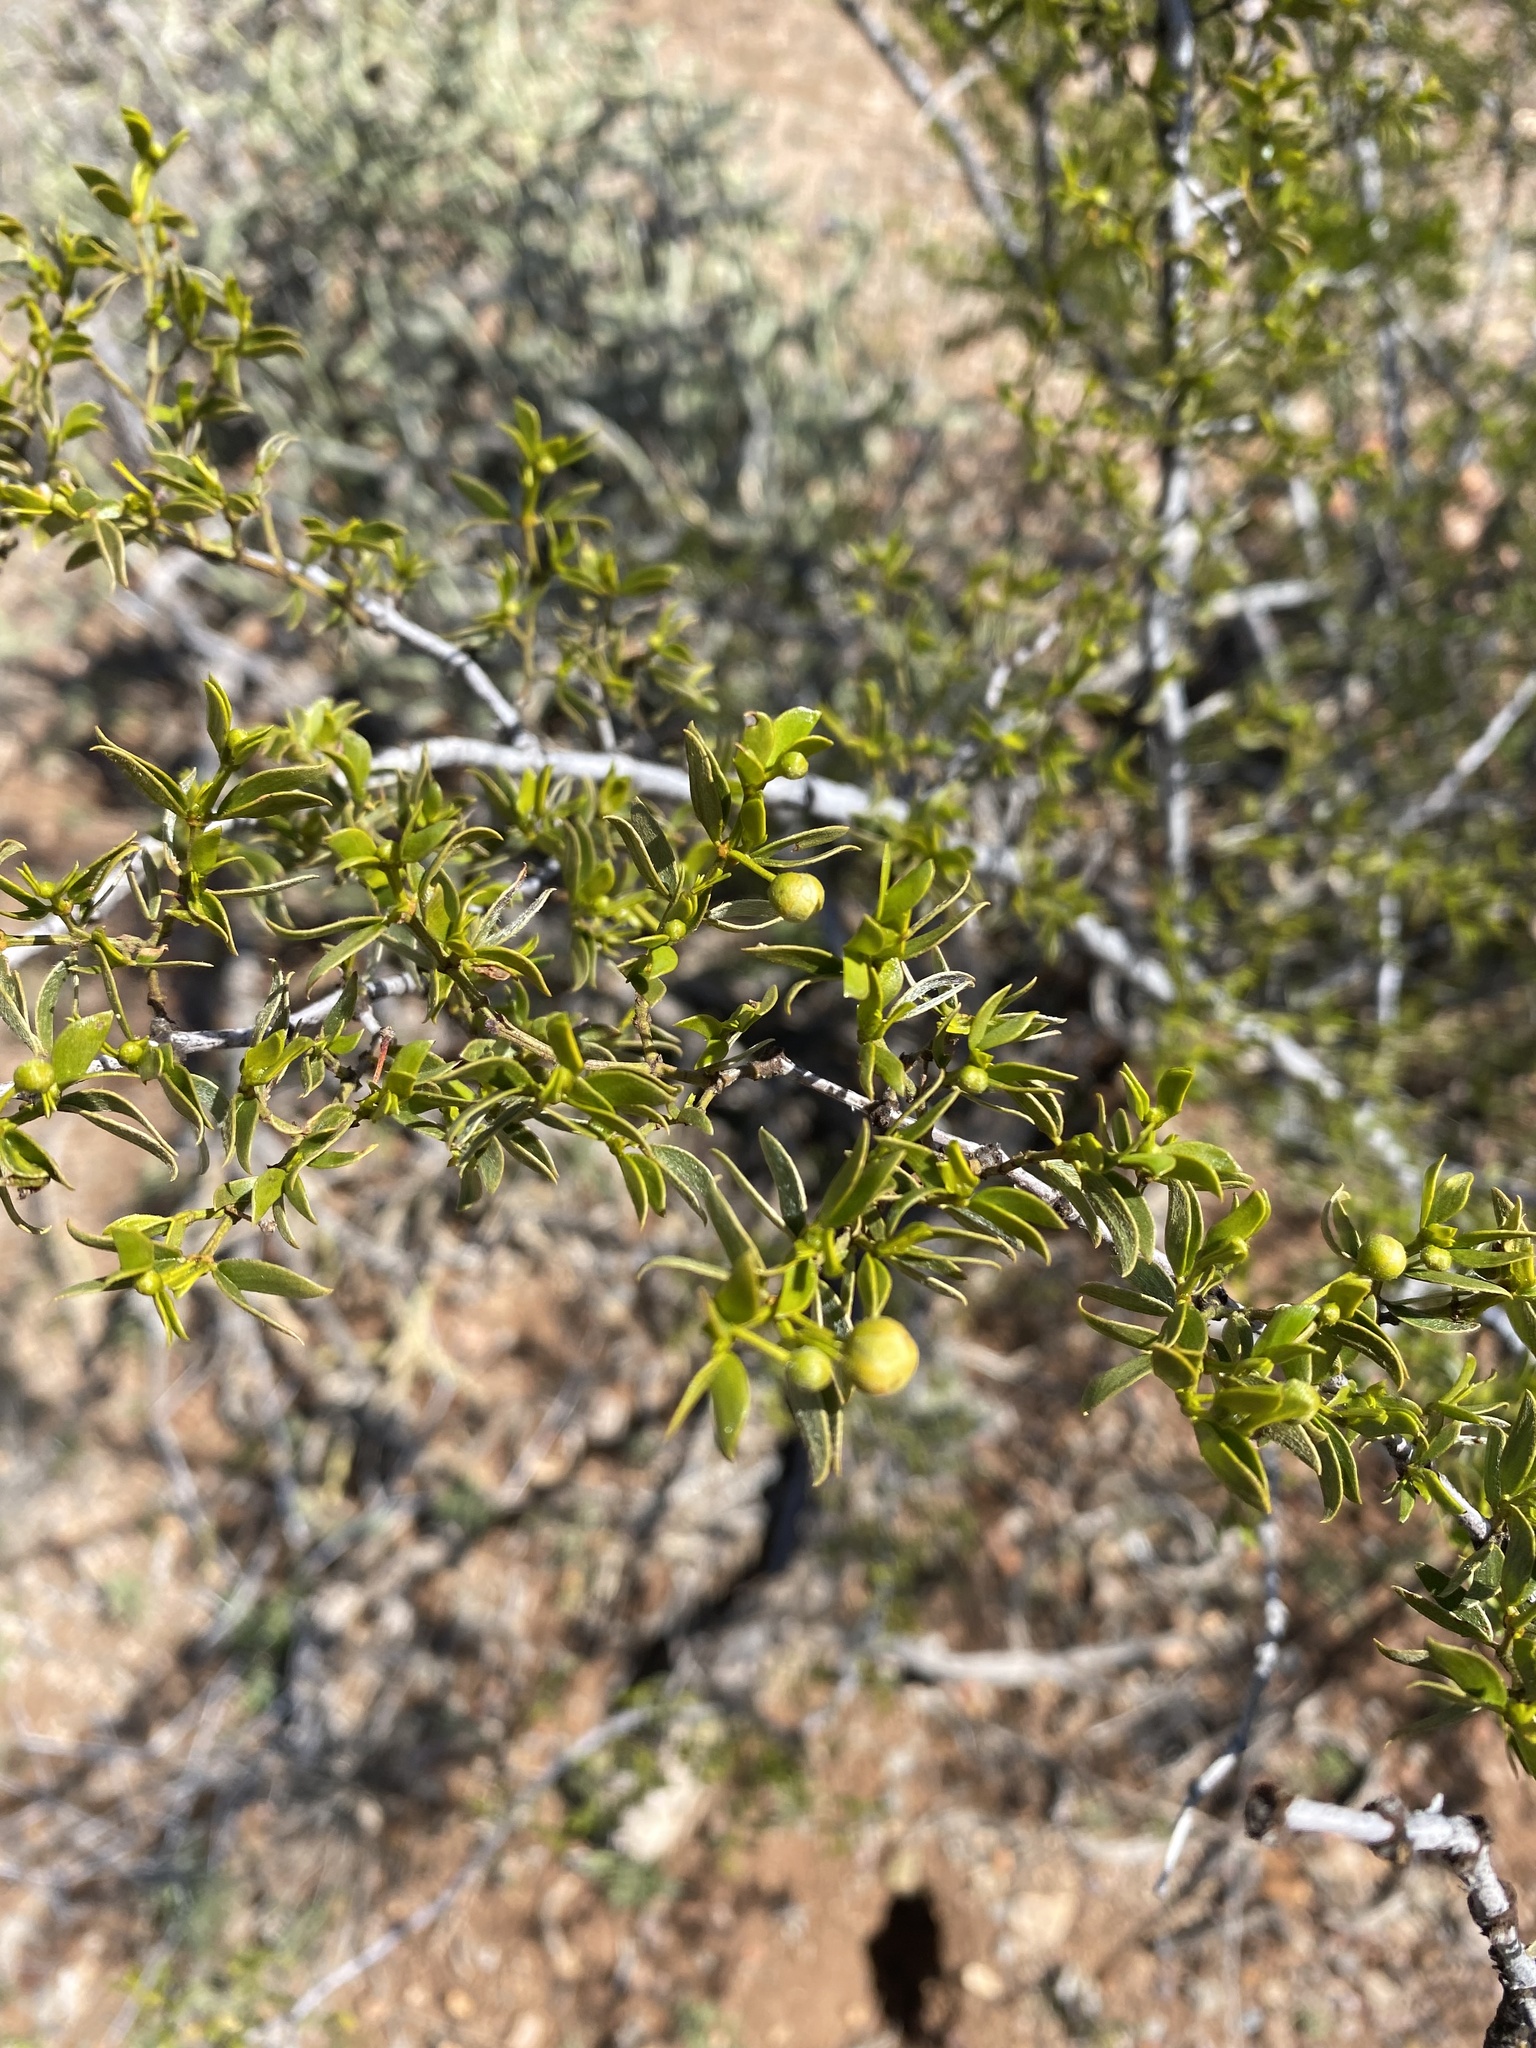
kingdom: Plantae
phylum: Tracheophyta
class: Magnoliopsida
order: Zygophyllales
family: Zygophyllaceae
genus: Larrea
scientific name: Larrea tridentata
